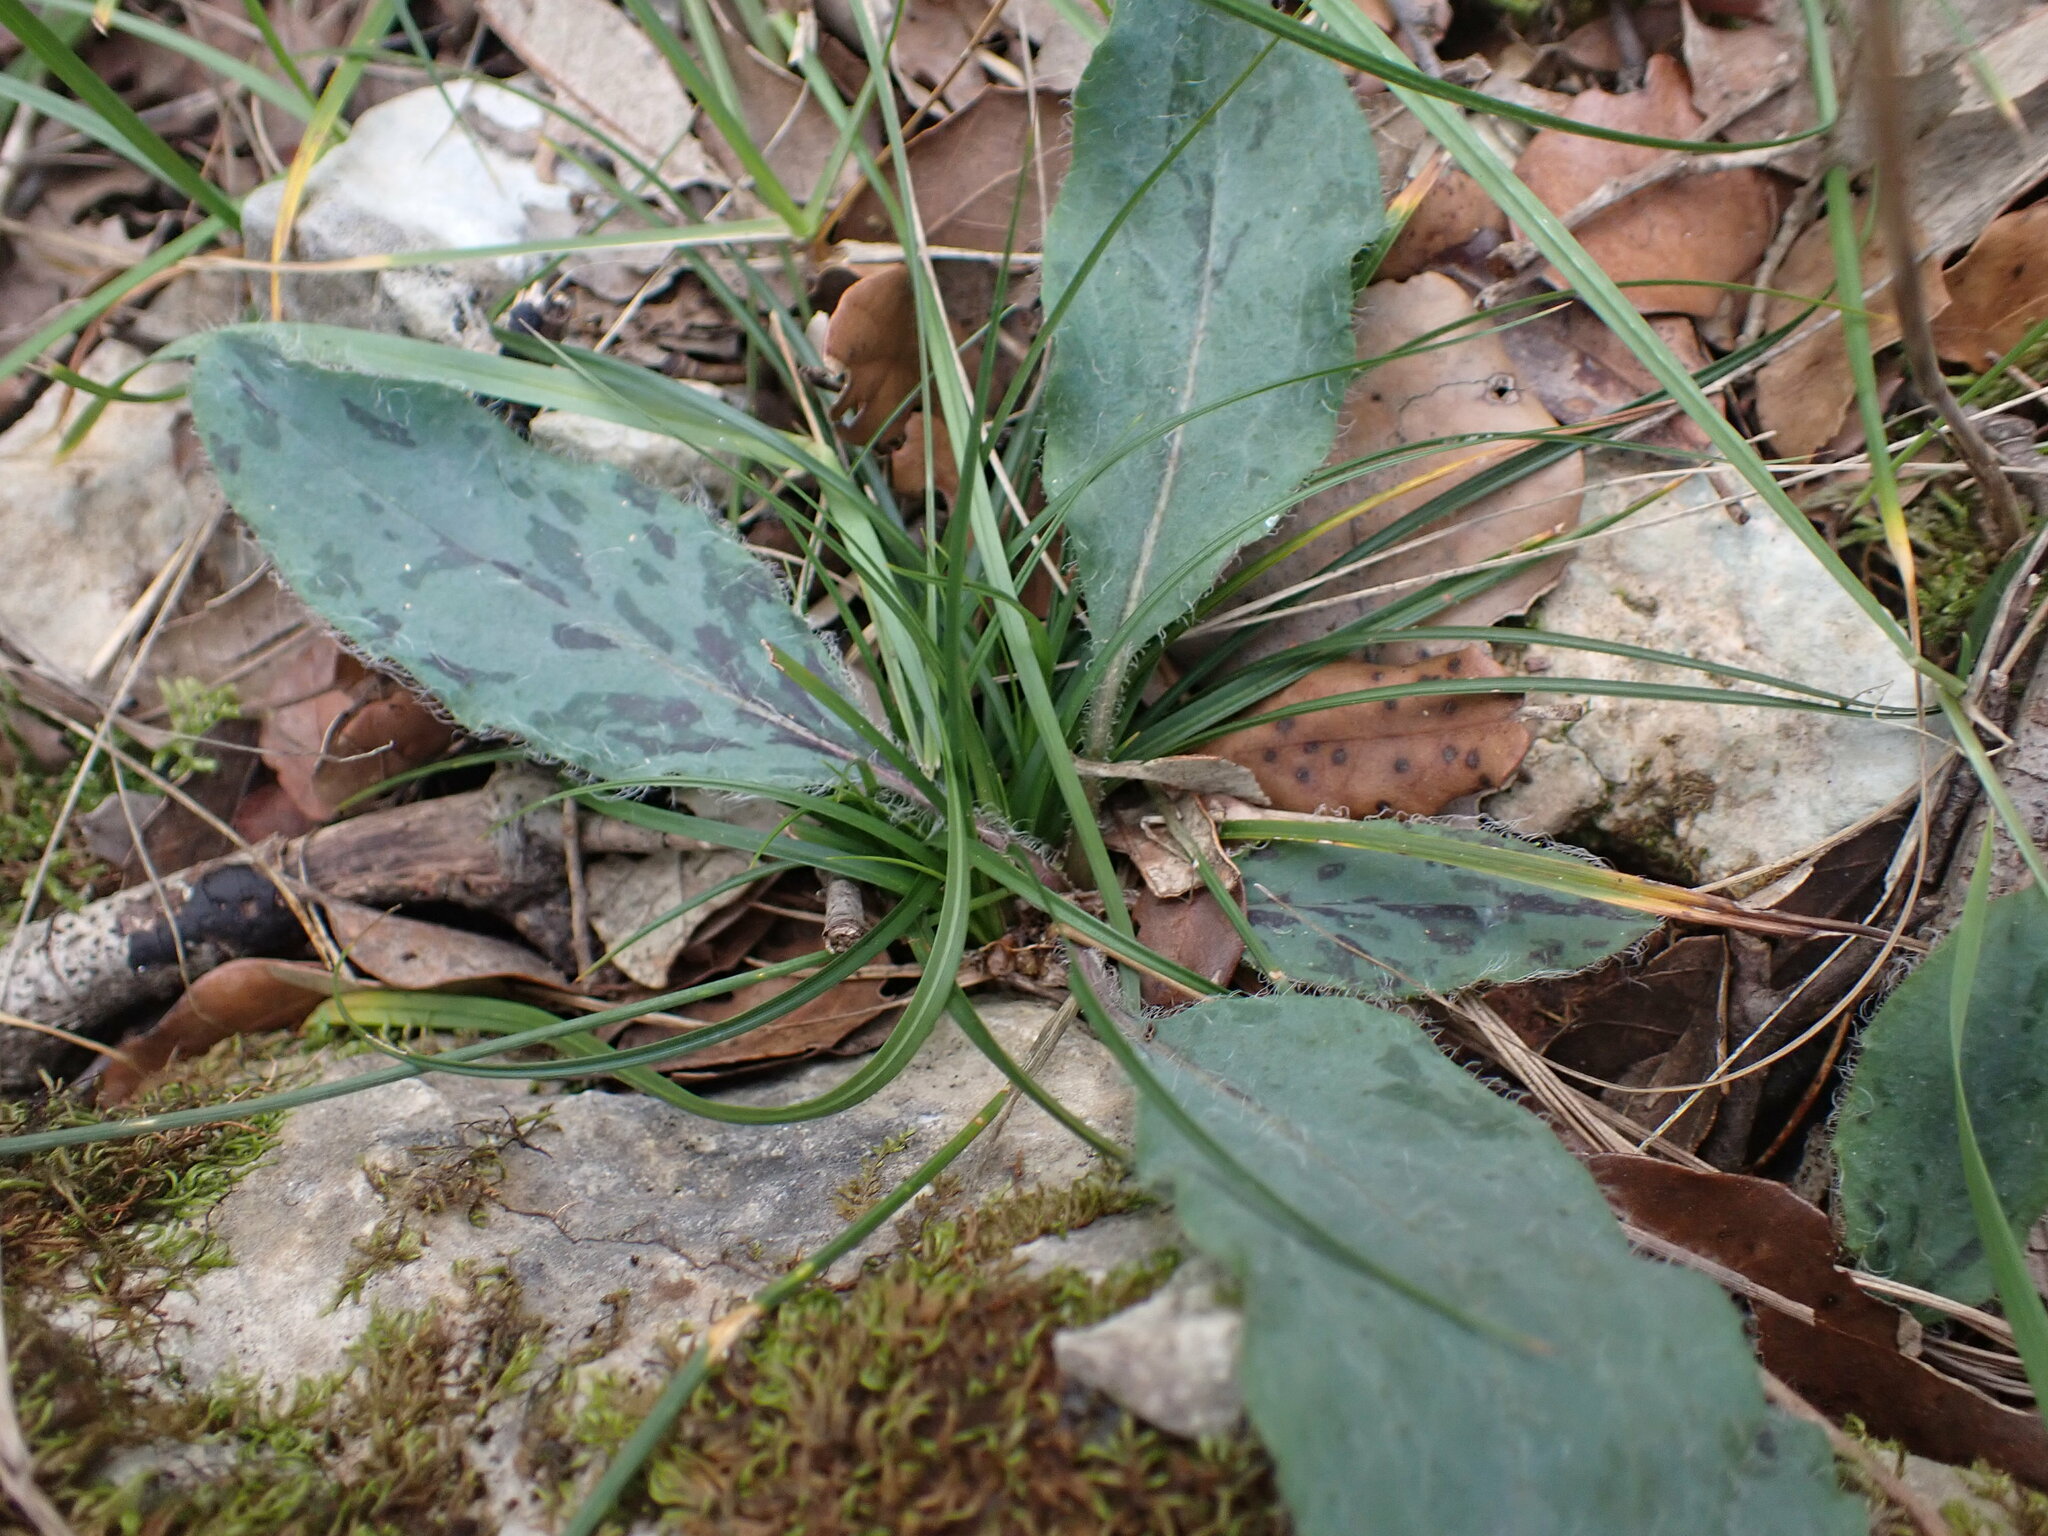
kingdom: Plantae
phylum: Tracheophyta
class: Magnoliopsida
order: Asterales
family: Asteraceae
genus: Hieracium
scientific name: Hieracium glaucinum
